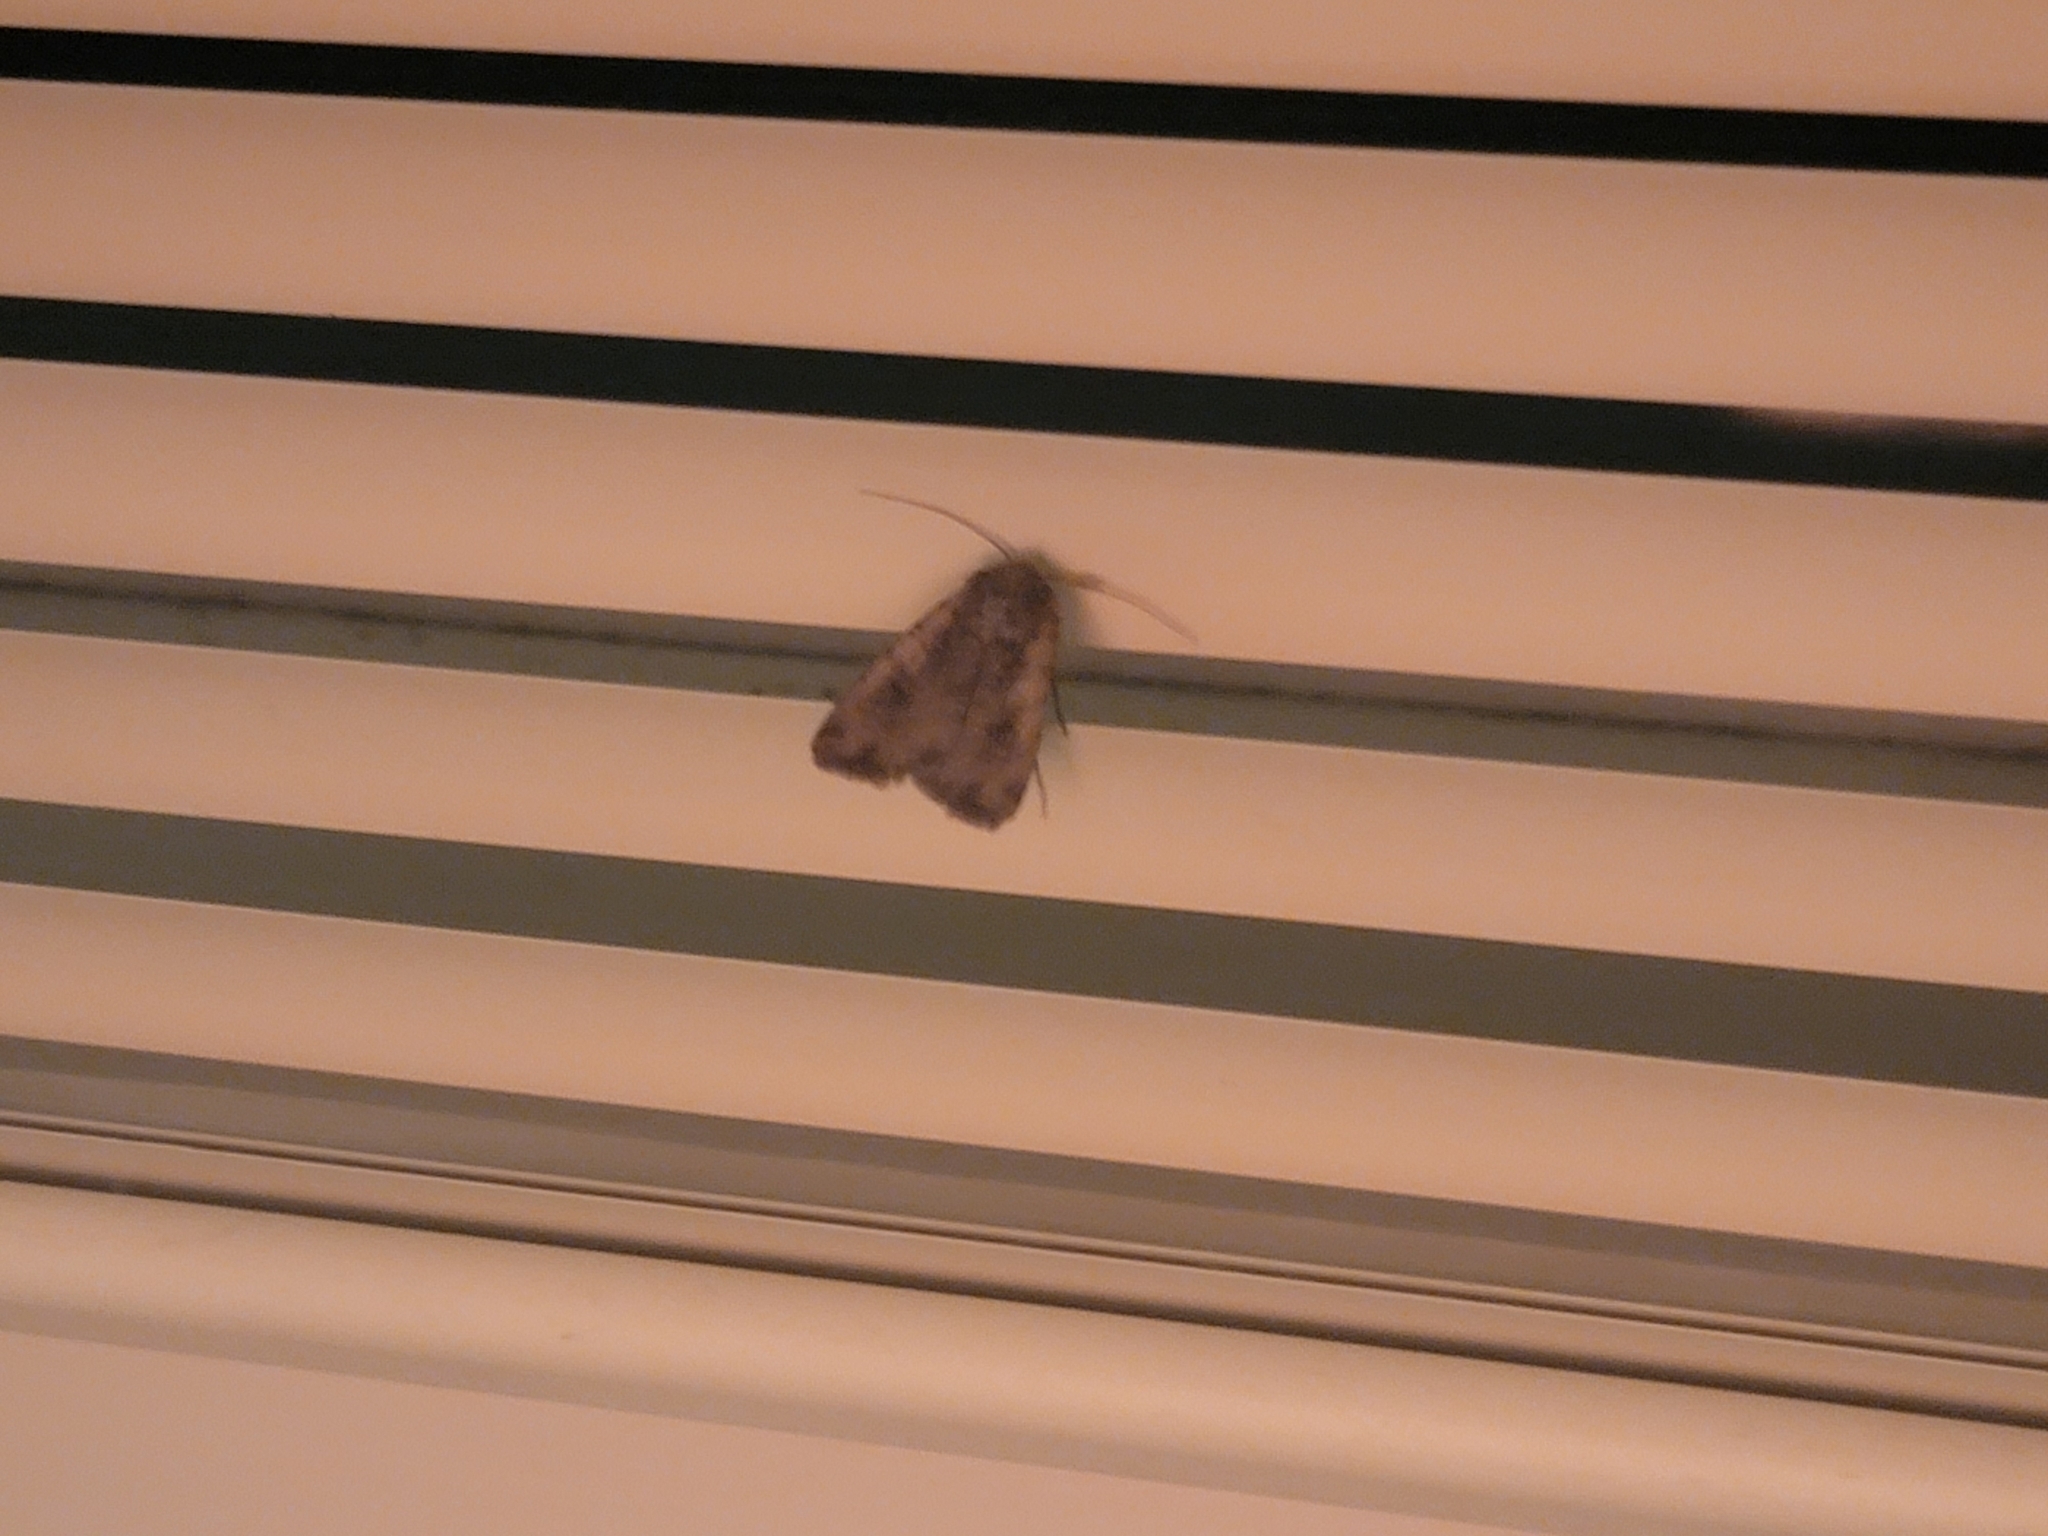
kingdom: Animalia
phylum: Arthropoda
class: Insecta
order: Lepidoptera
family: Noctuidae
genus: Peridroma
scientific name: Peridroma saucia
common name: Pearly underwing
